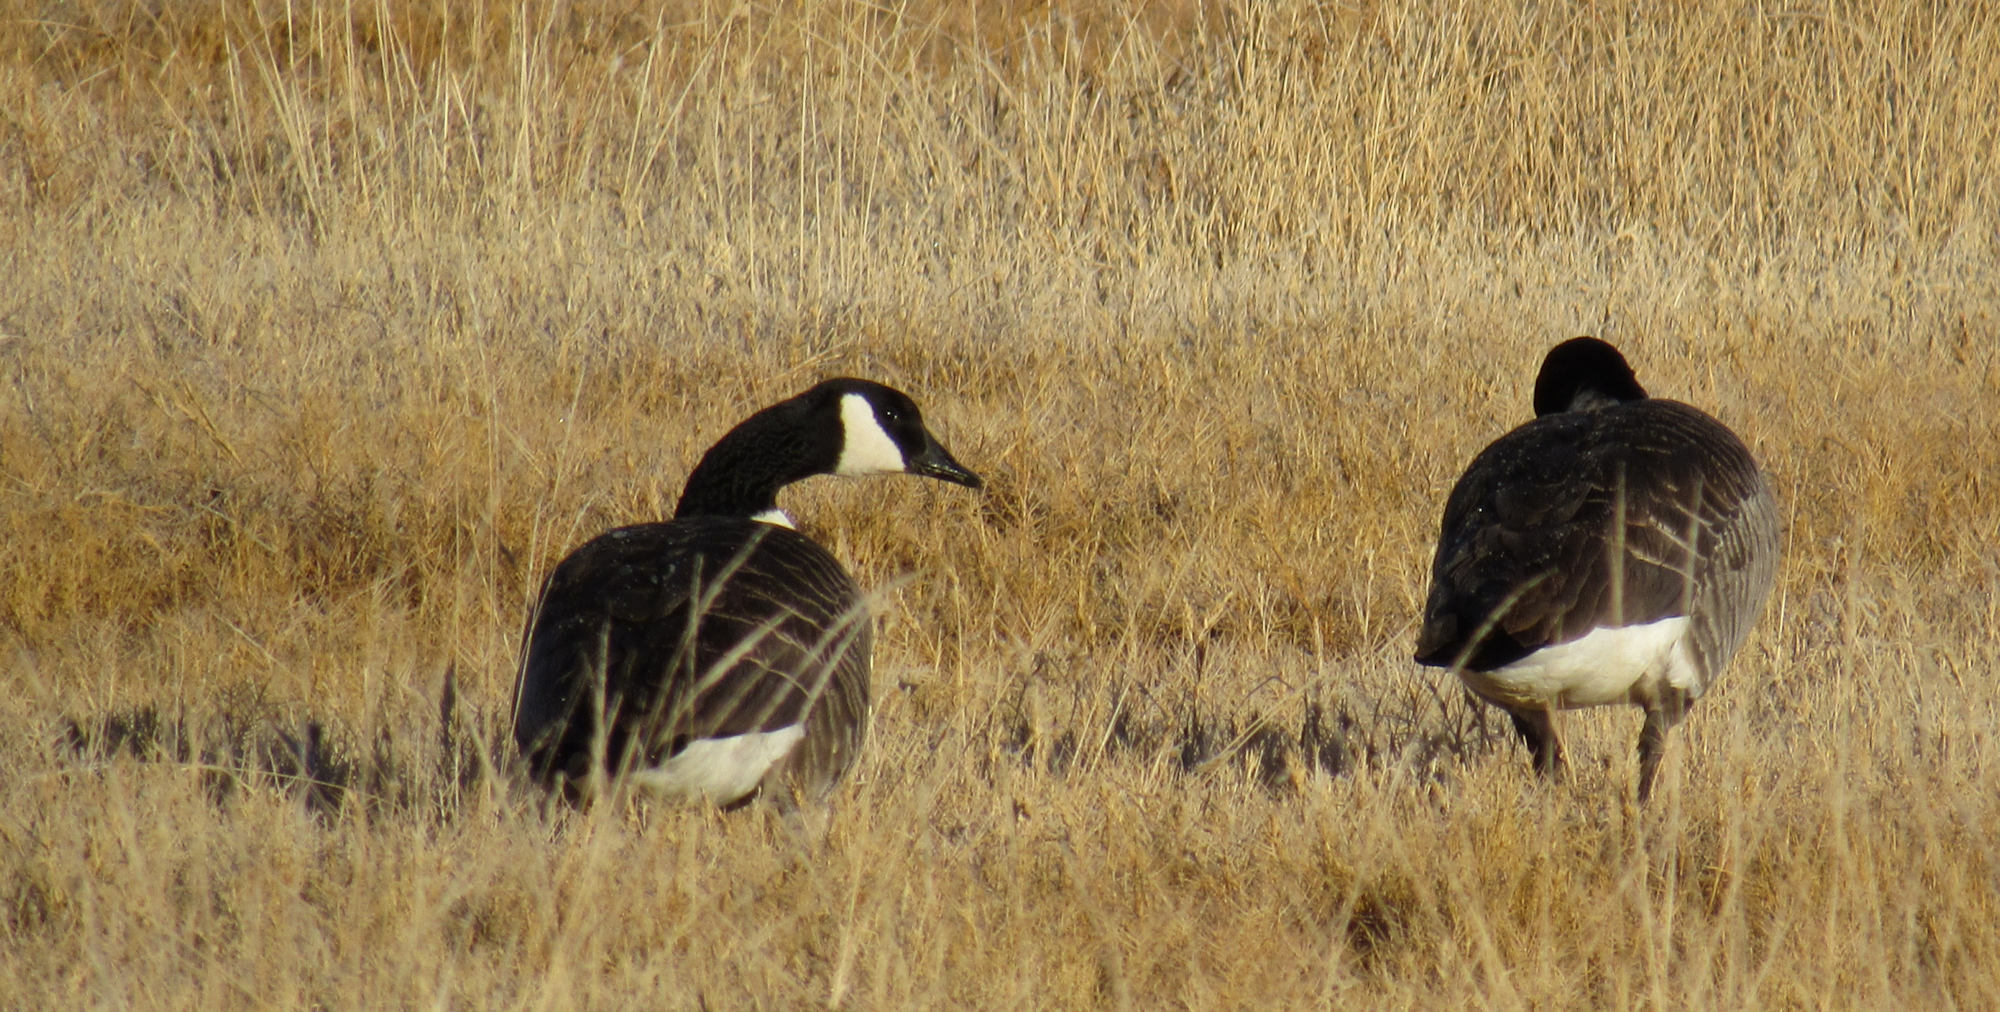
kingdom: Animalia
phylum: Chordata
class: Aves
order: Anseriformes
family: Anatidae
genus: Branta
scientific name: Branta canadensis
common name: Canada goose
